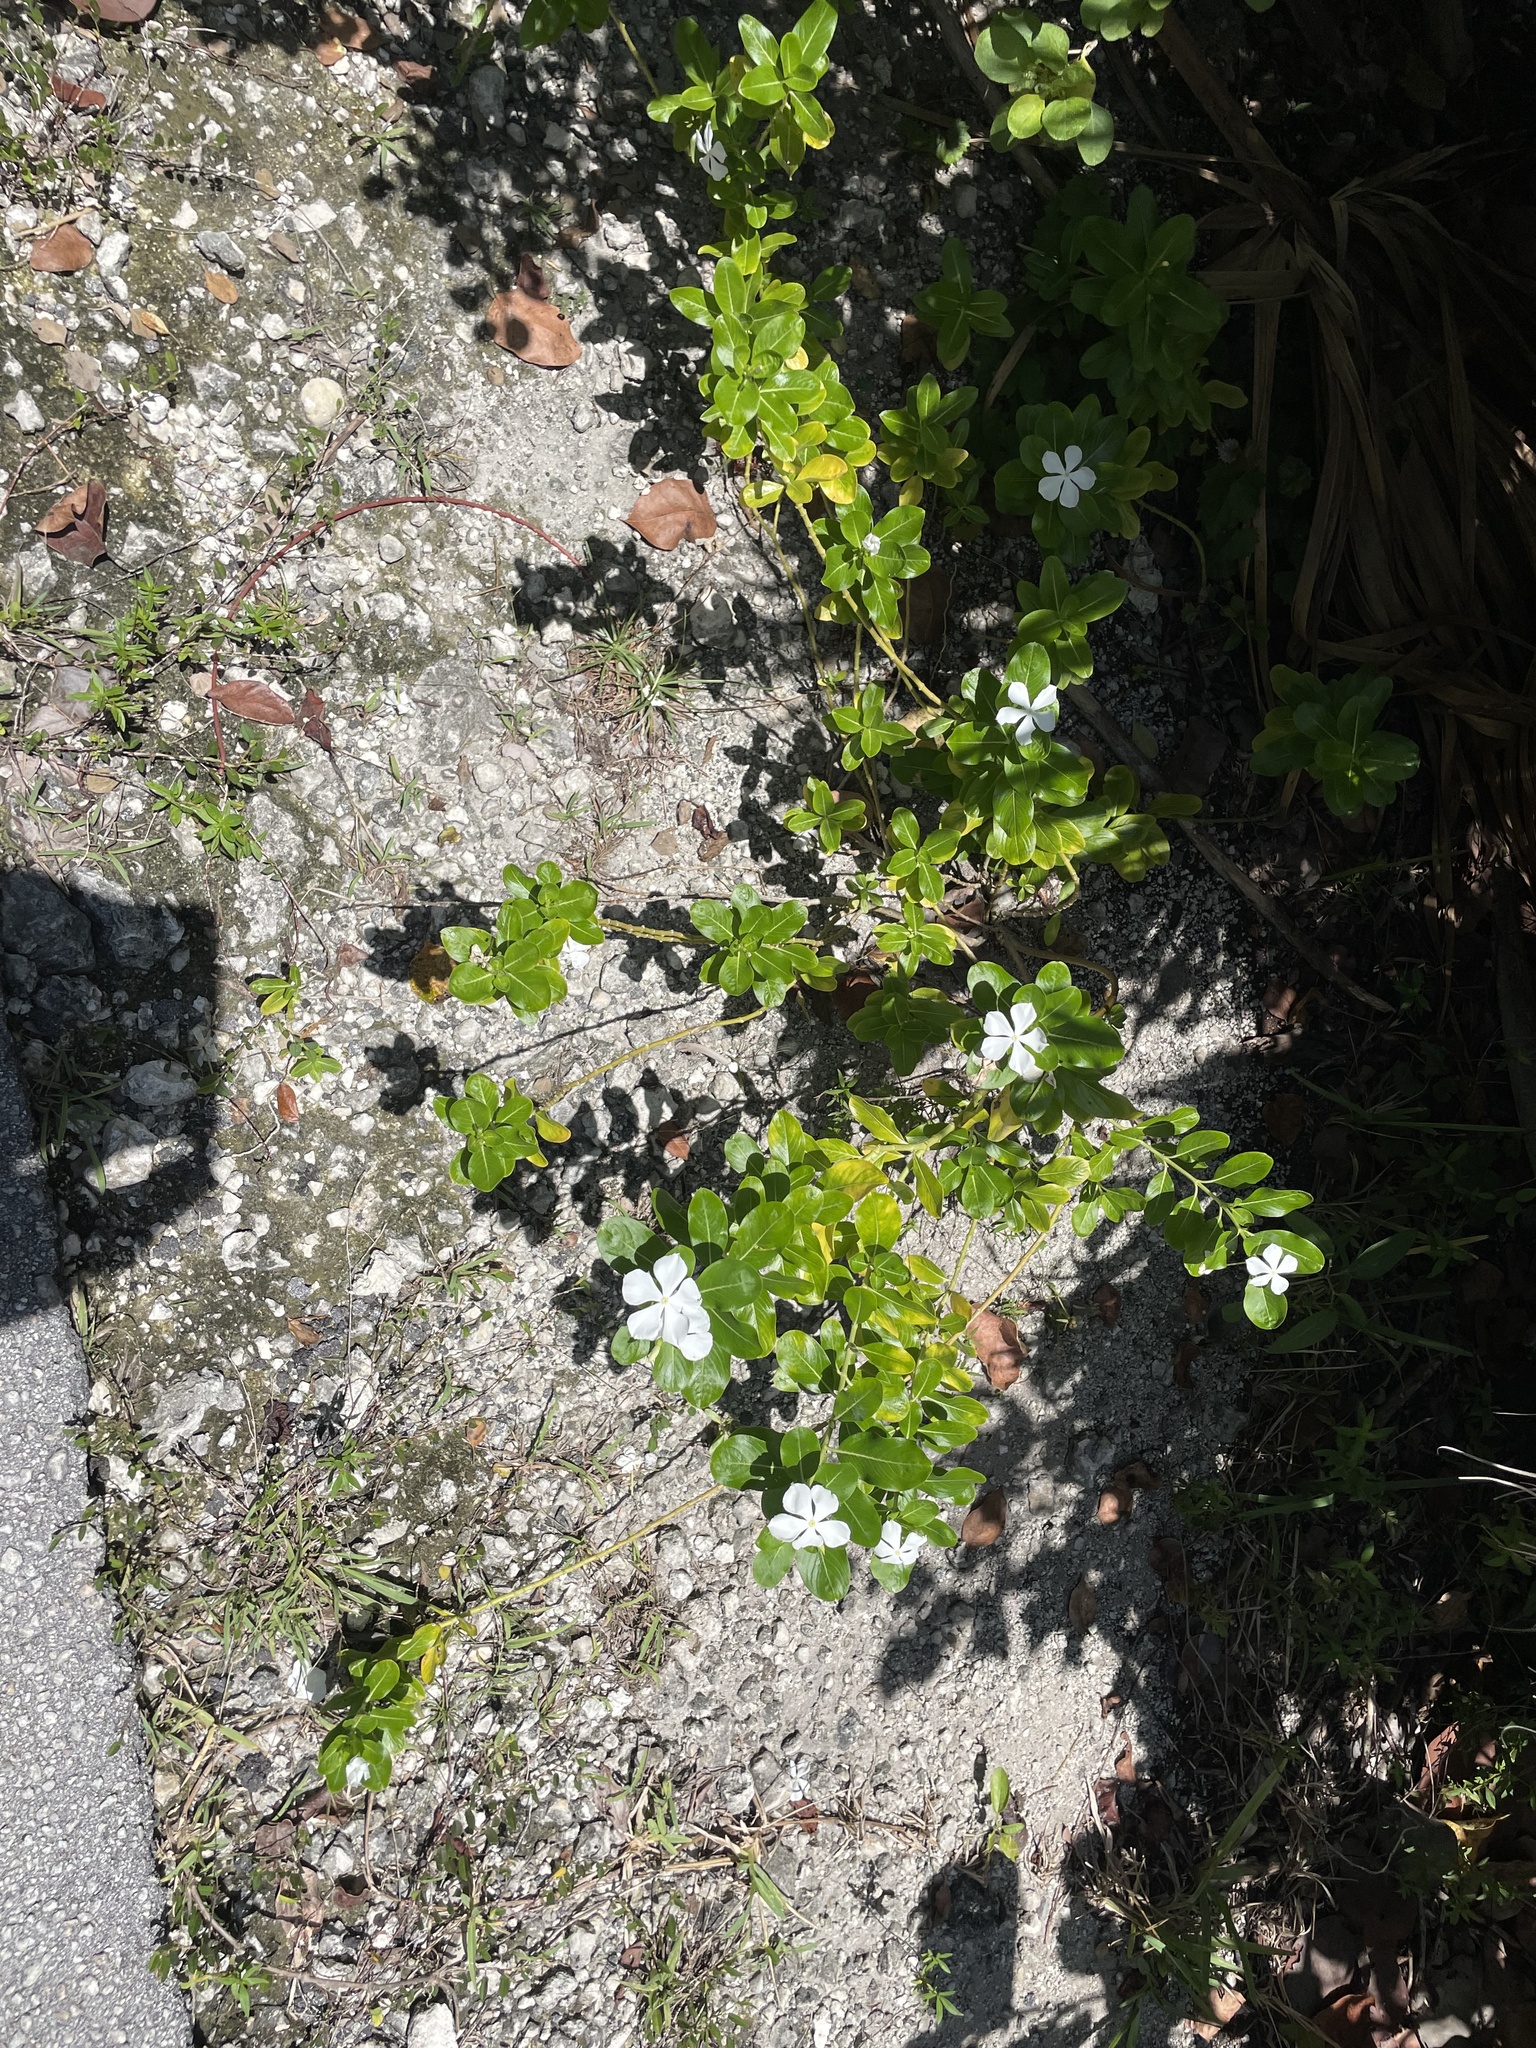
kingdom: Plantae
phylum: Tracheophyta
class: Magnoliopsida
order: Gentianales
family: Apocynaceae
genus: Catharanthus
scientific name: Catharanthus roseus
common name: Madagascar periwinkle
